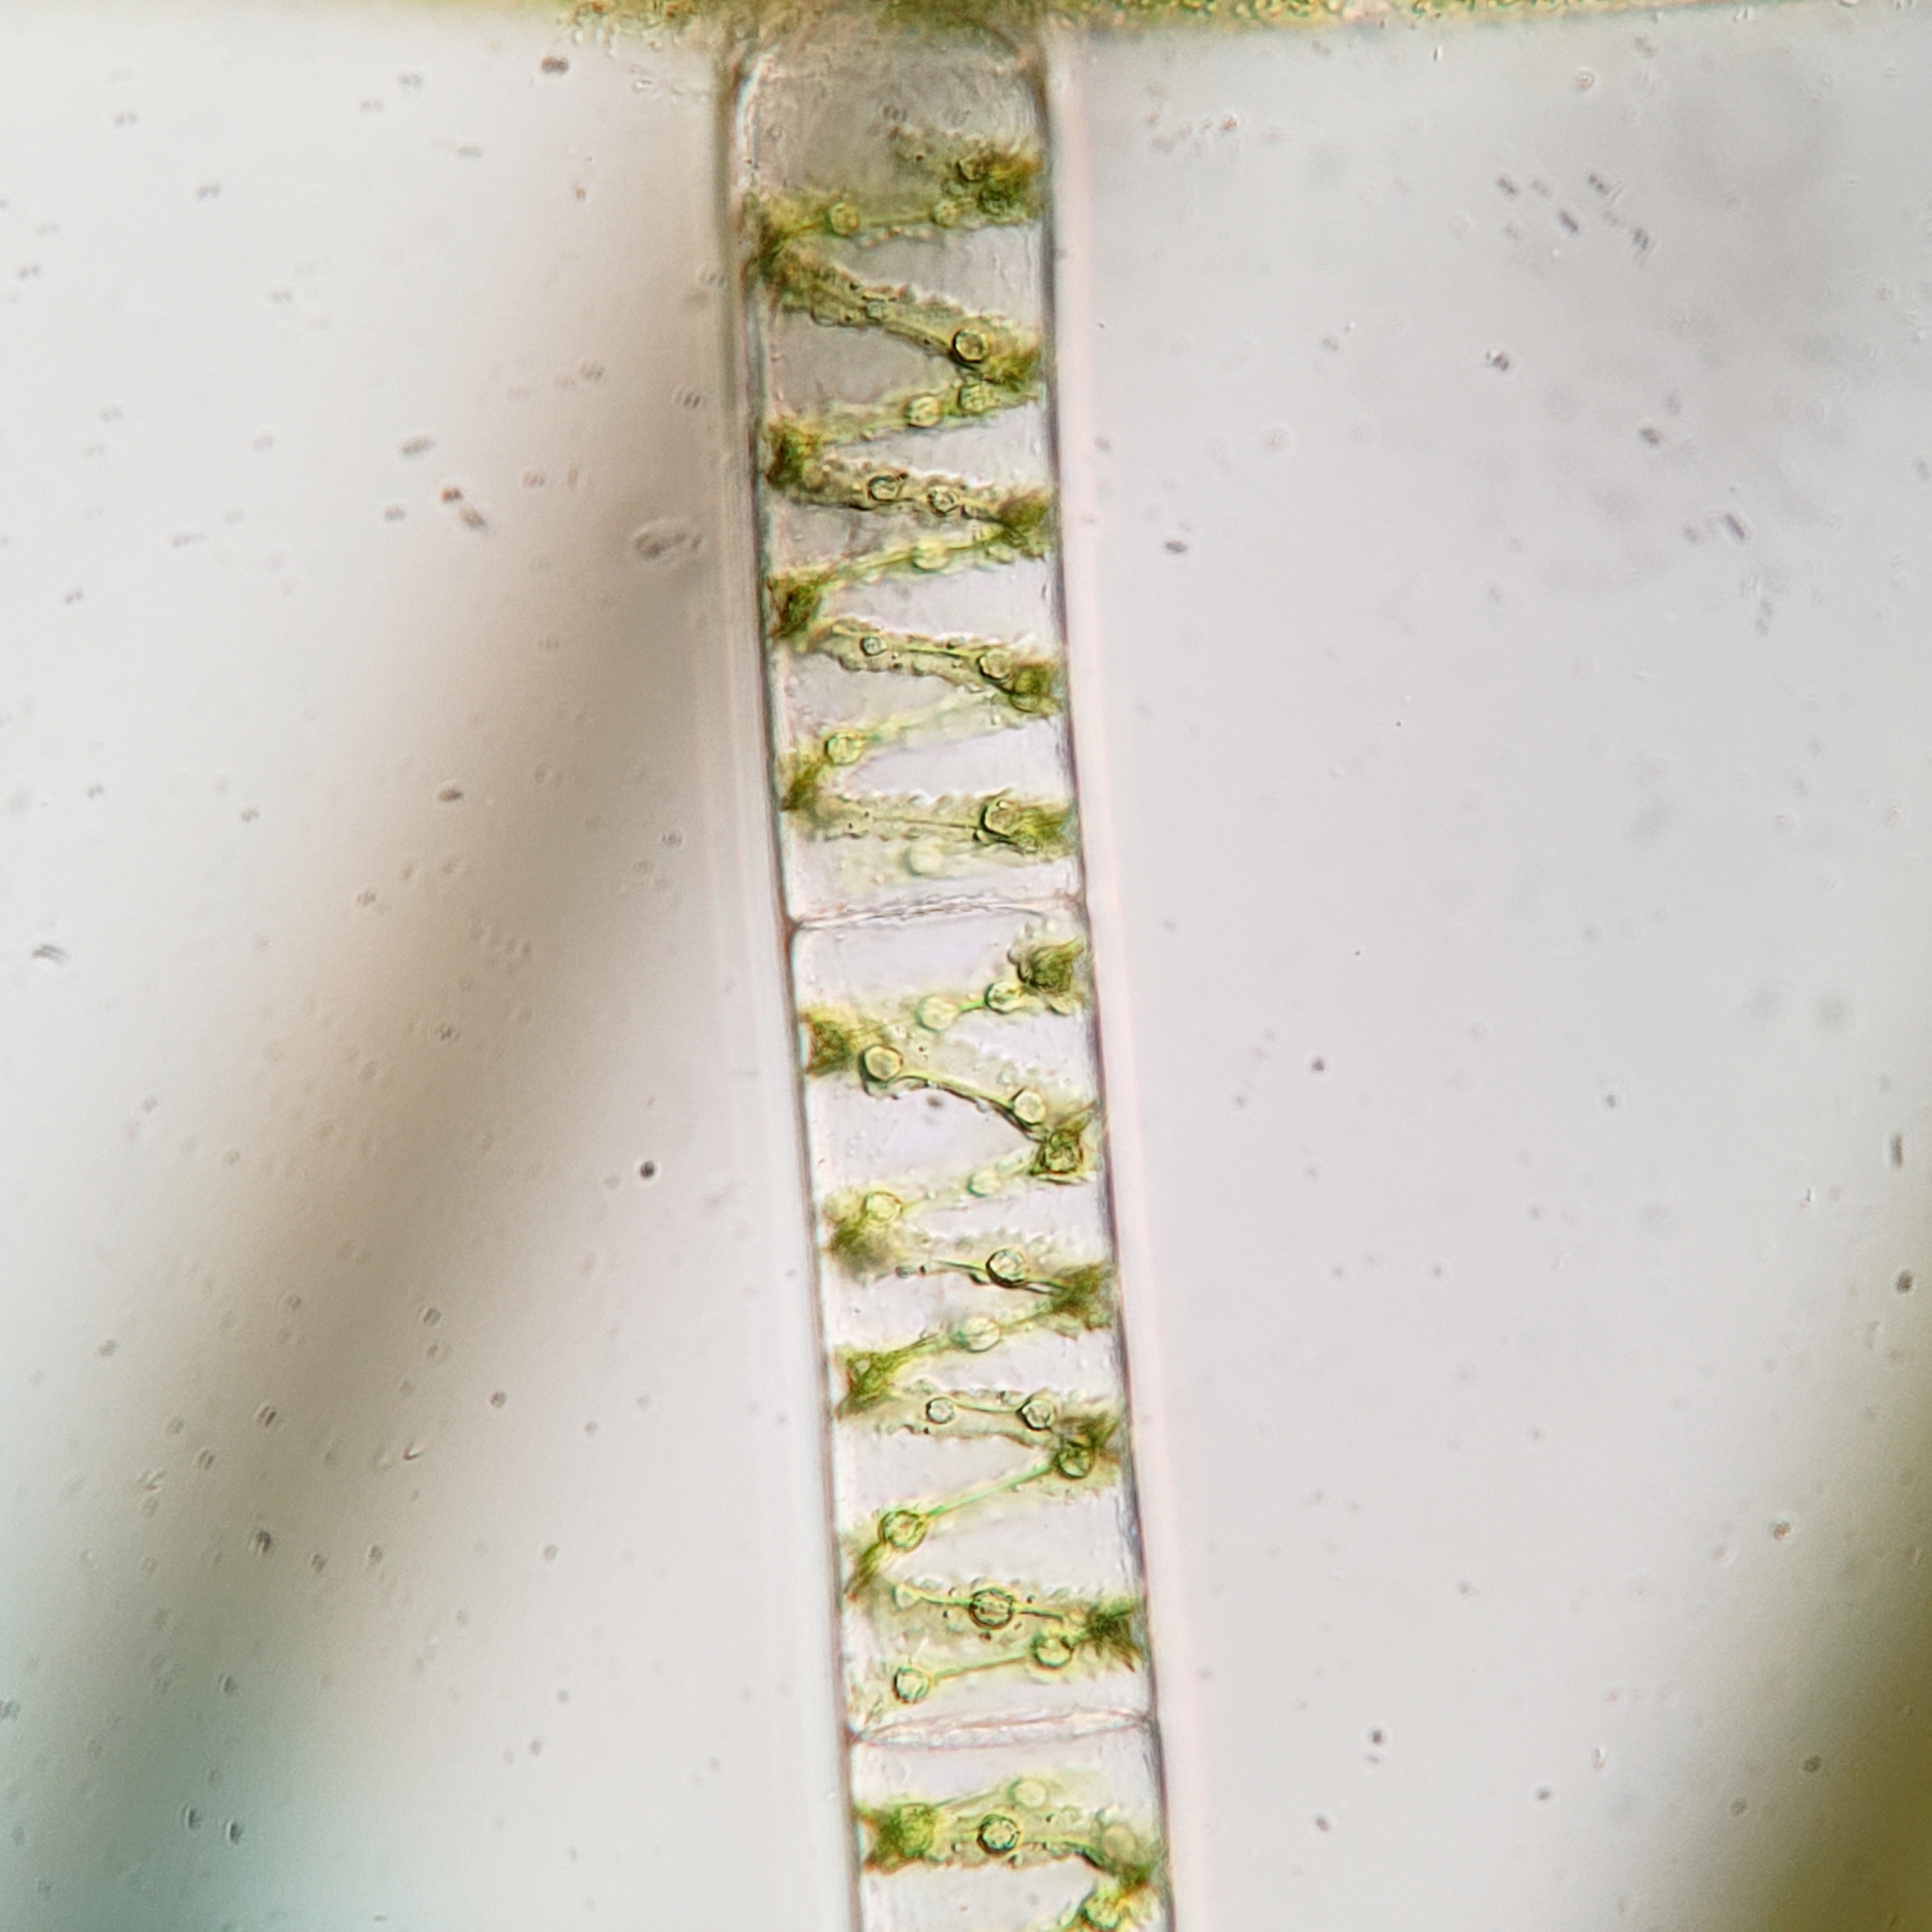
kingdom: Plantae
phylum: Charophyta
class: Zygnematophyceae
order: Zygnematales
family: Zygnemataceae
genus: Spirogyra
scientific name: Spirogyra
